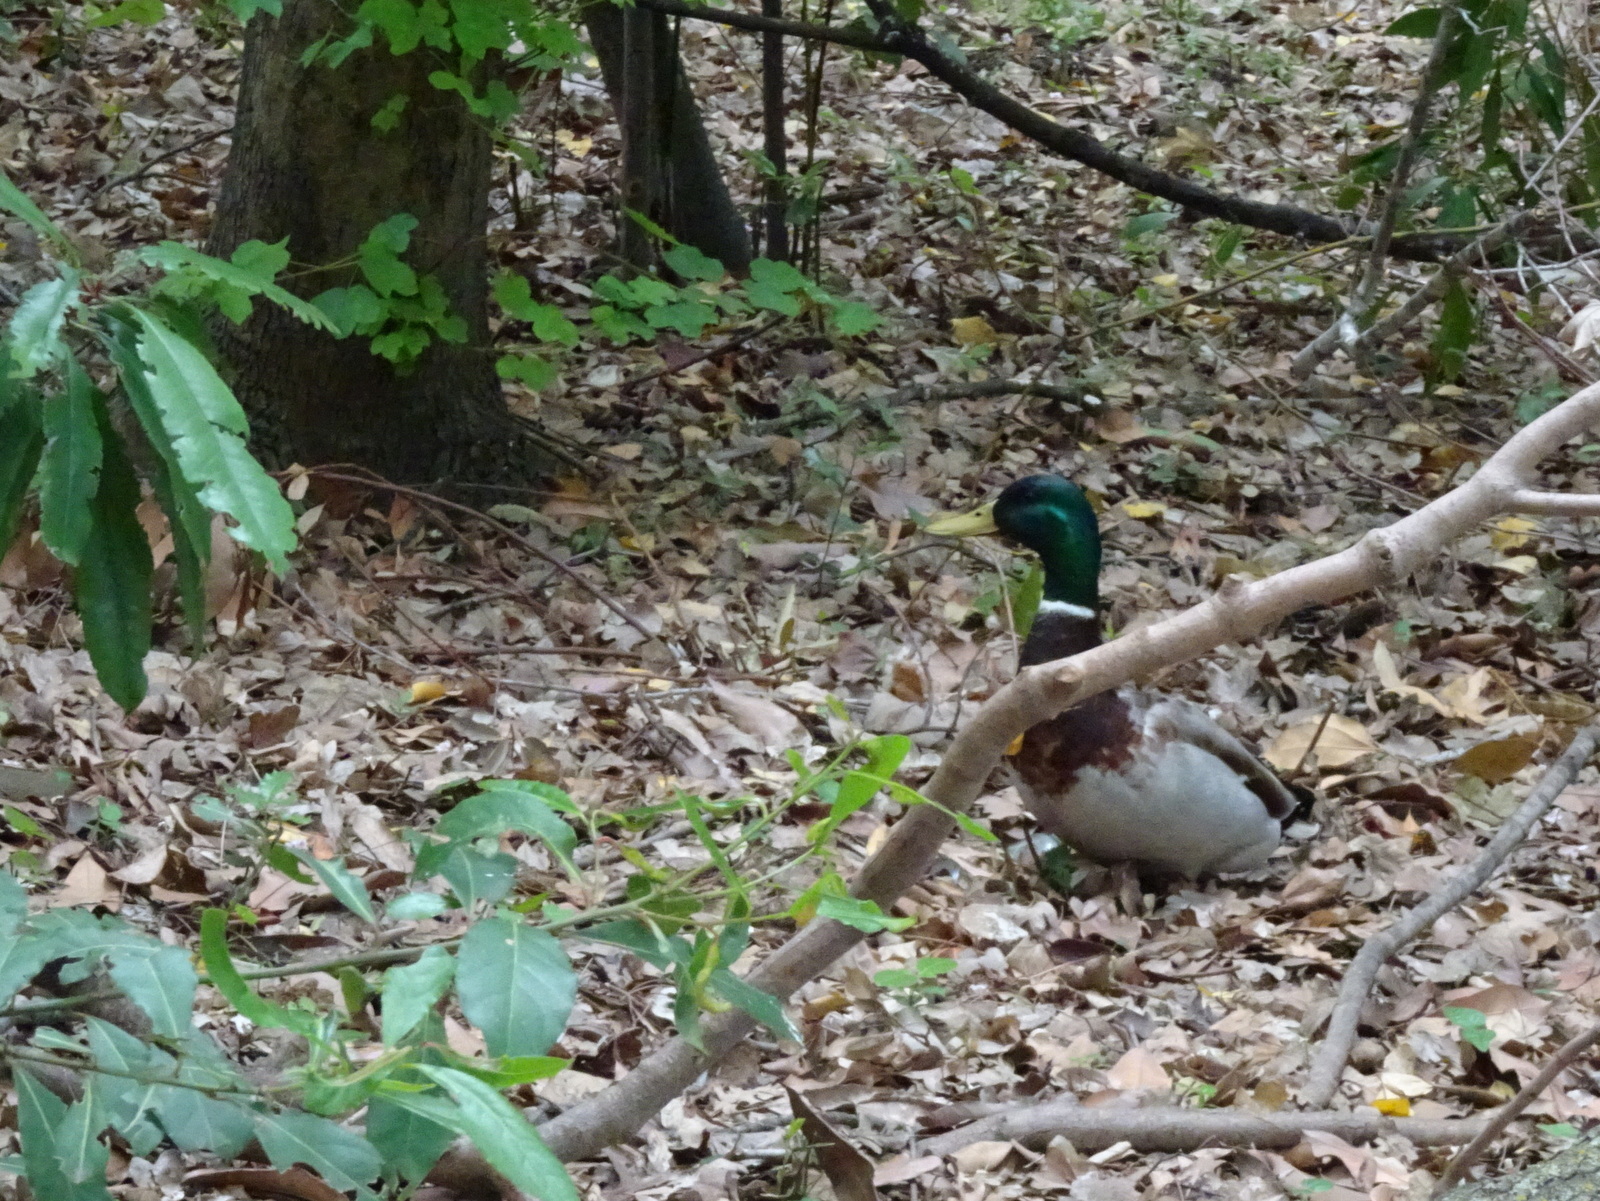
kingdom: Animalia
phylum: Chordata
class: Aves
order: Anseriformes
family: Anatidae
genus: Anas
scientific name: Anas platyrhynchos
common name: Mallard
